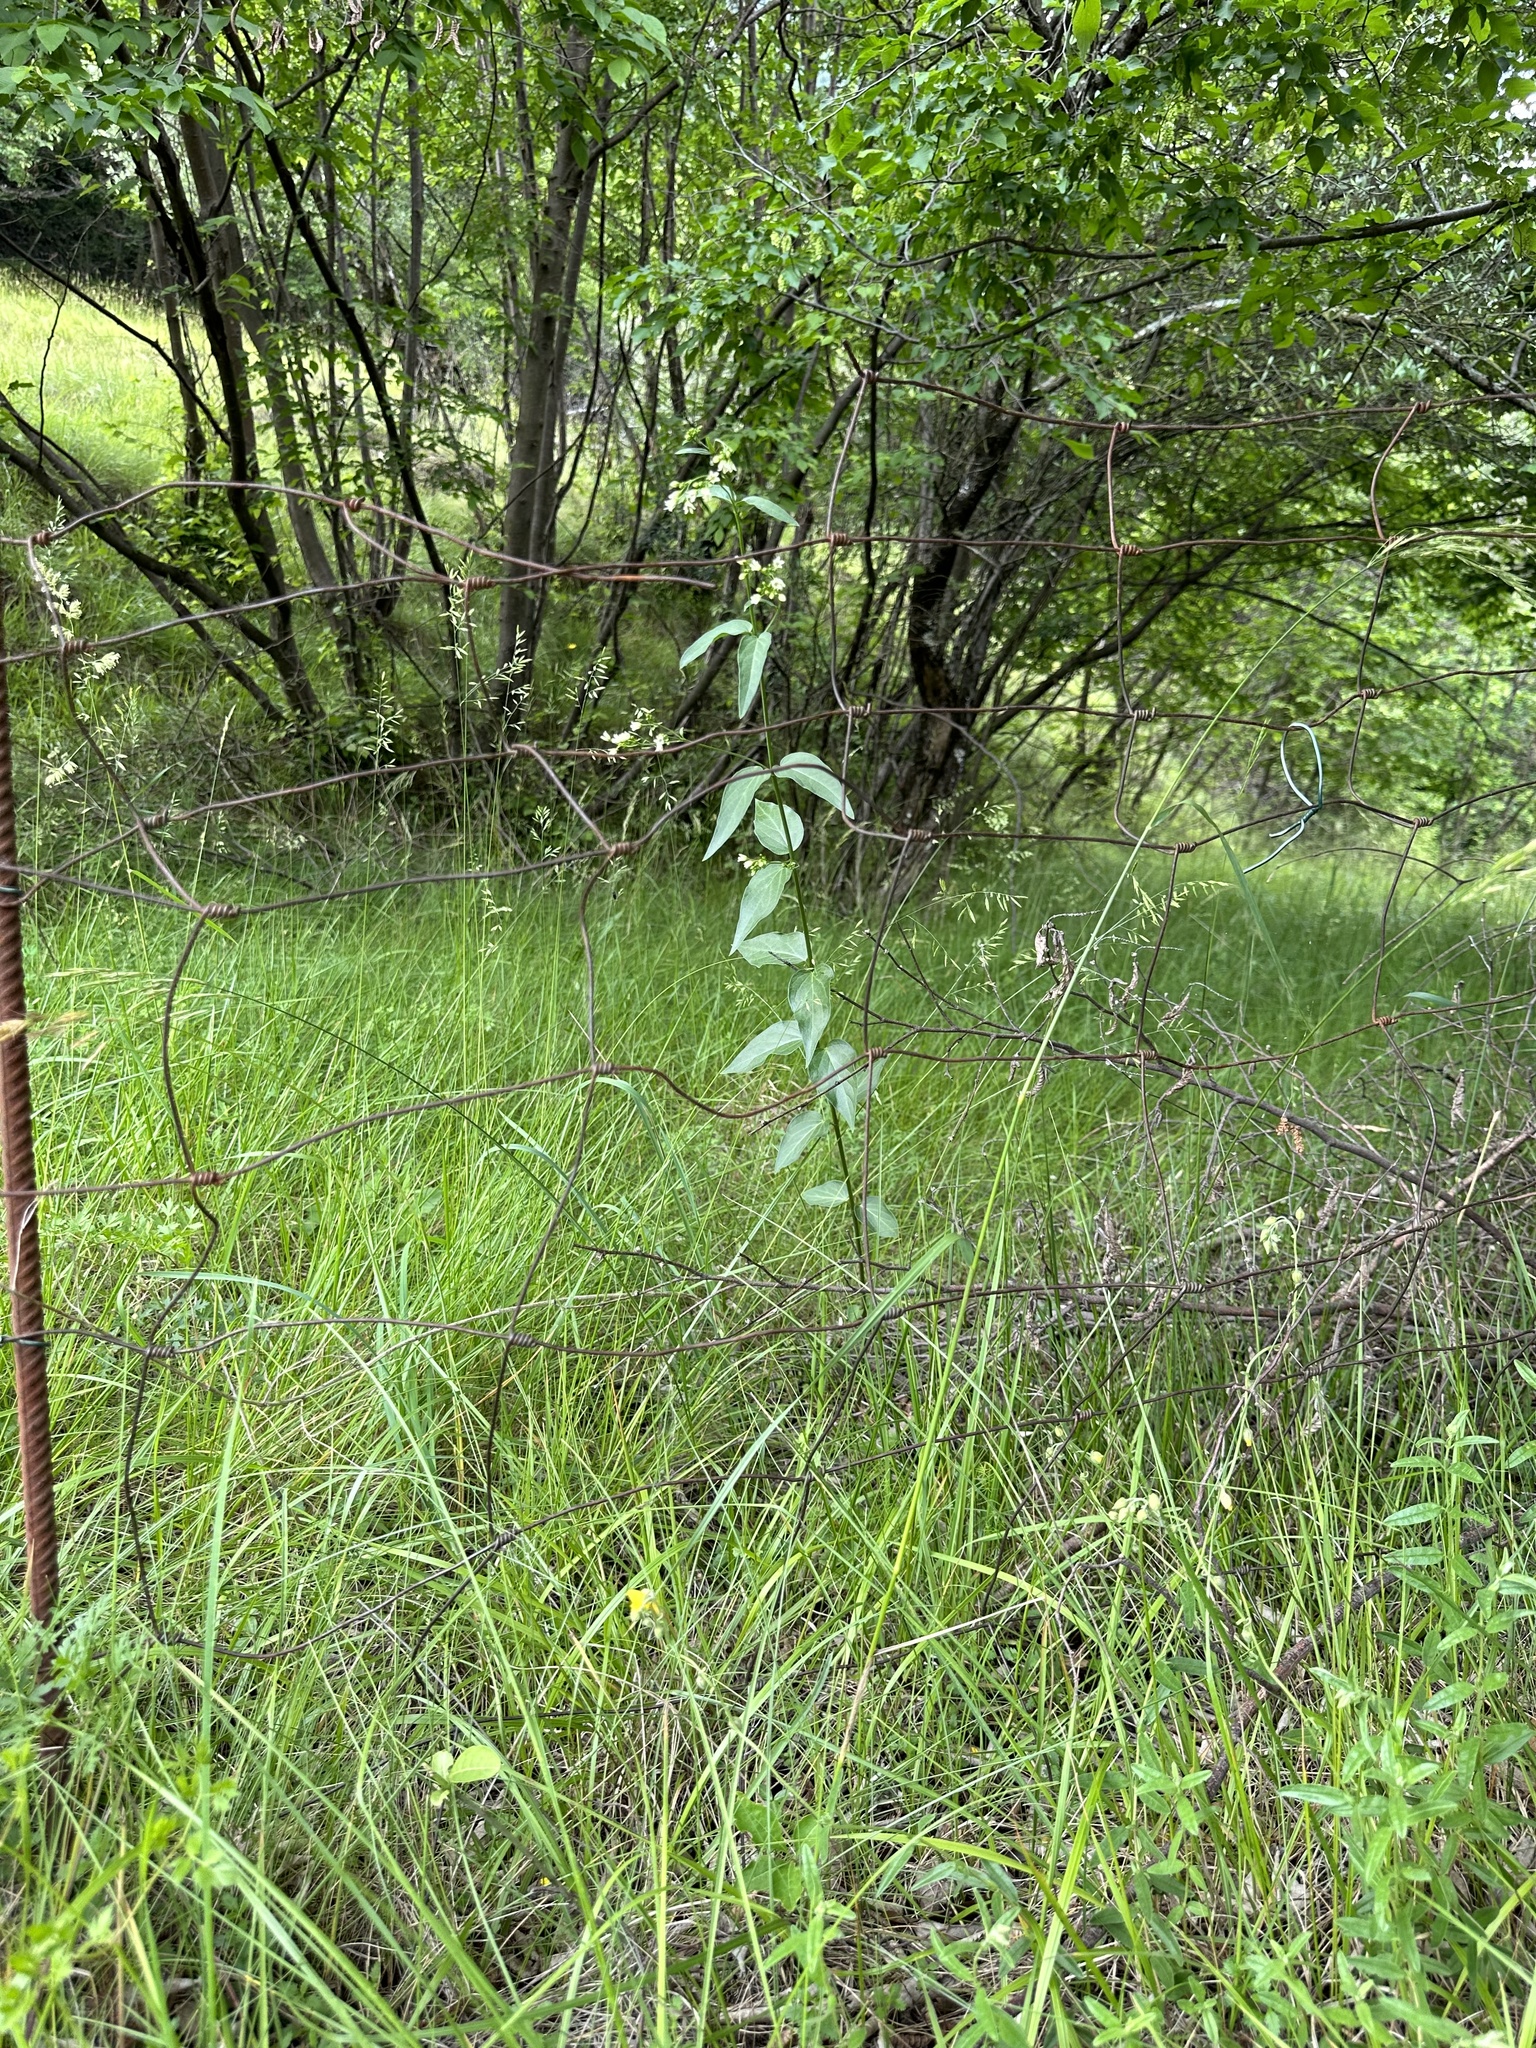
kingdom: Plantae
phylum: Tracheophyta
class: Magnoliopsida
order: Gentianales
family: Apocynaceae
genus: Vincetoxicum
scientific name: Vincetoxicum hirundinaria
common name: White swallowwort
